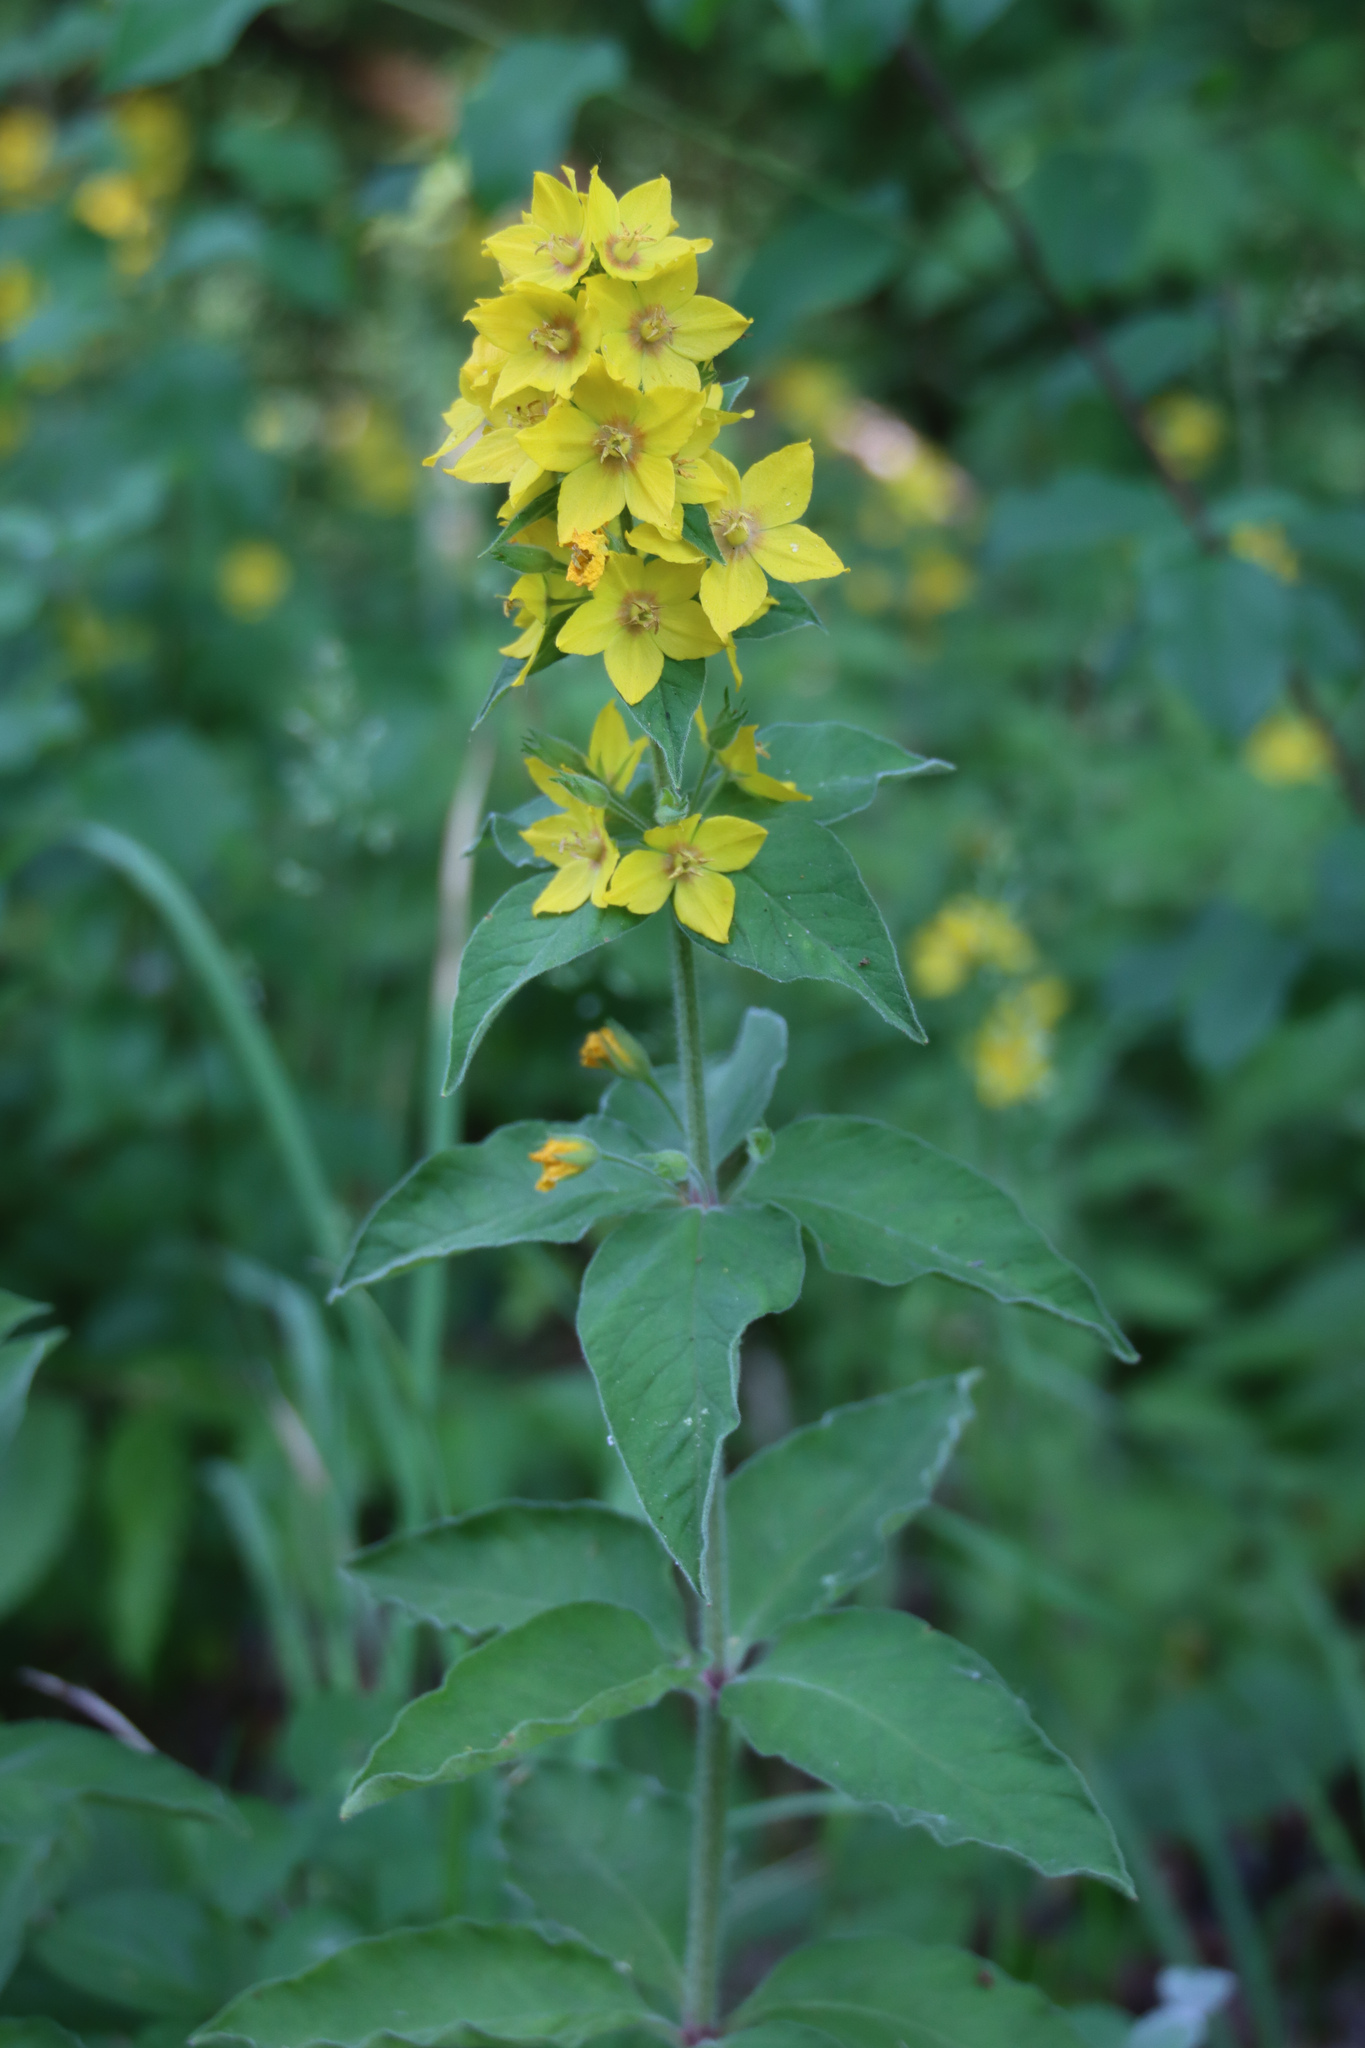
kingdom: Plantae
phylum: Tracheophyta
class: Magnoliopsida
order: Ericales
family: Primulaceae
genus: Lysimachia
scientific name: Lysimachia punctata
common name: Dotted loosestrife
